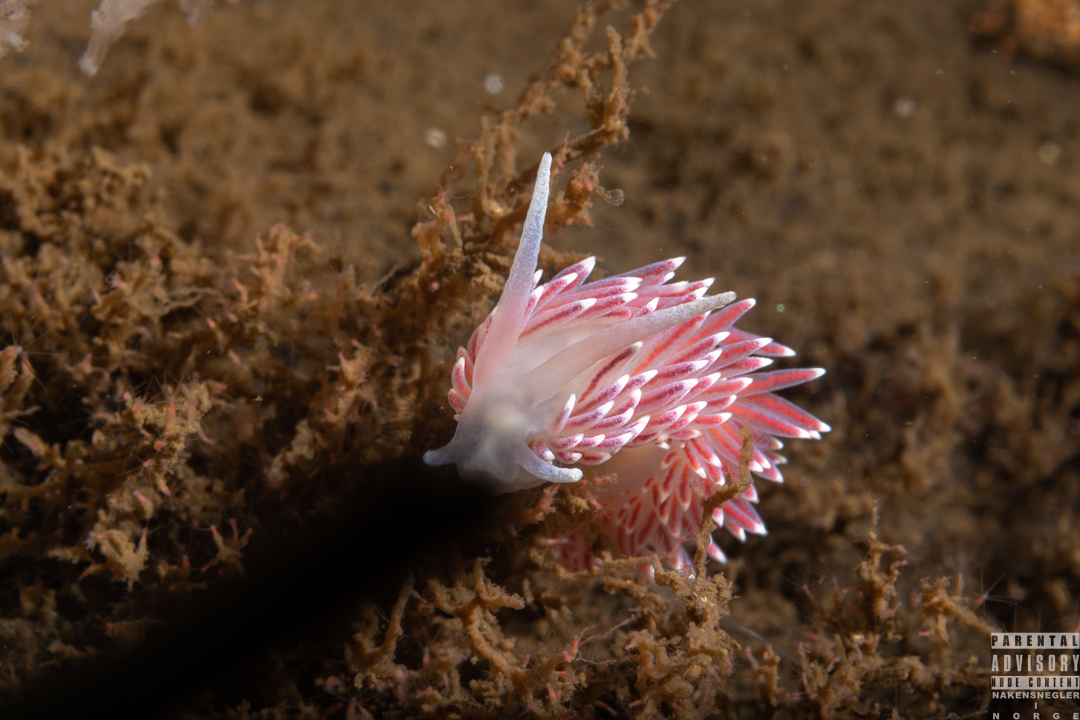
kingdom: Animalia
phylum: Mollusca
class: Gastropoda
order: Nudibranchia
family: Flabellinidae
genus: Carronella
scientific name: Carronella pellucida
